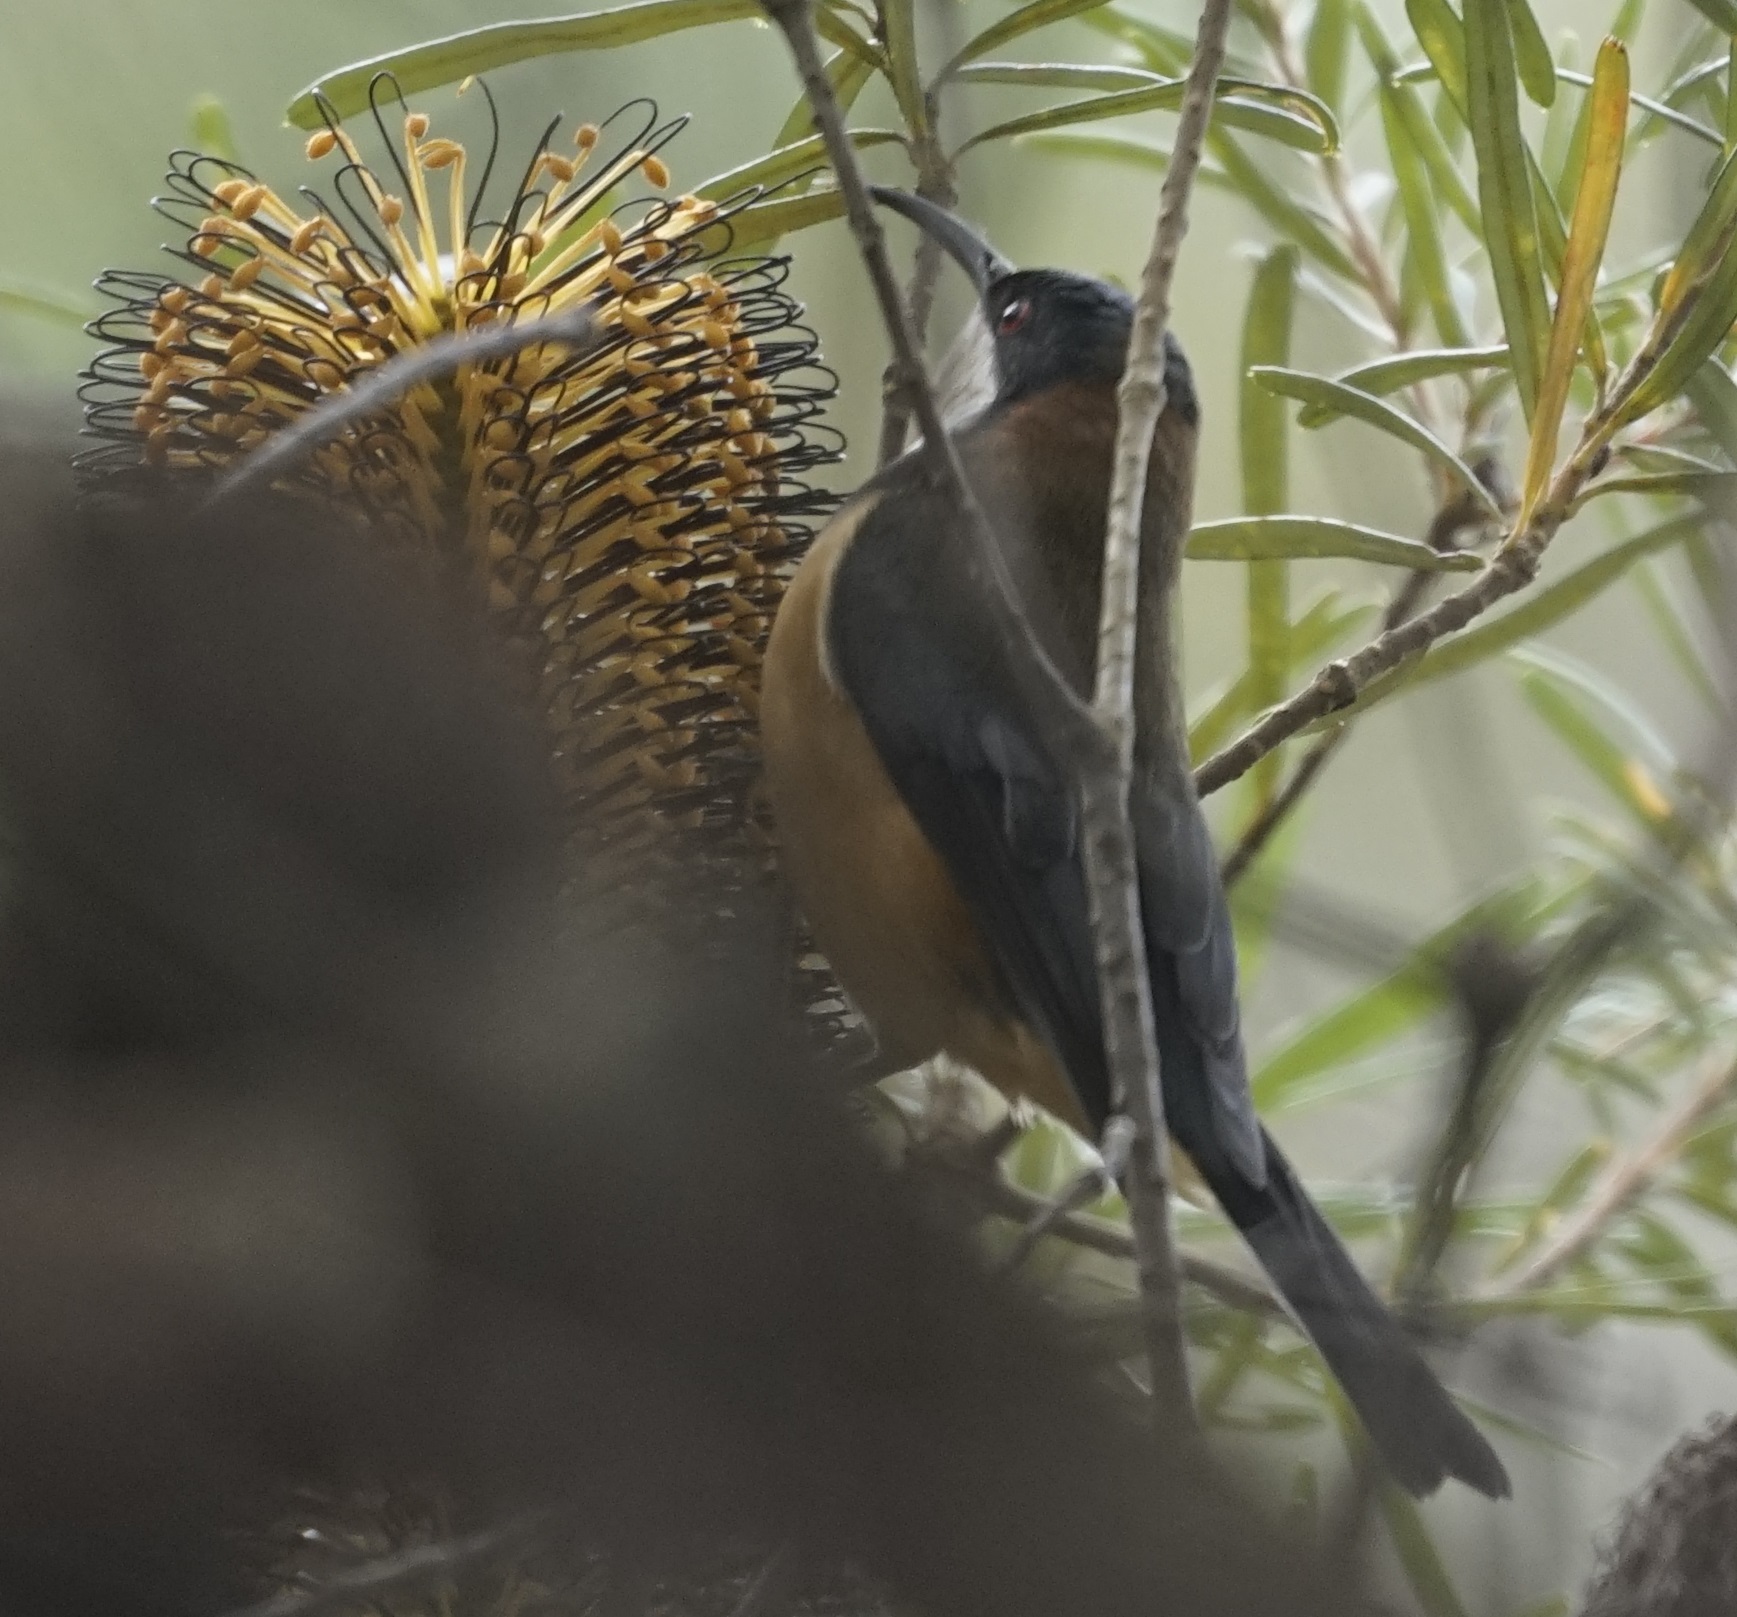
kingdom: Animalia
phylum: Chordata
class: Aves
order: Passeriformes
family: Meliphagidae
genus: Acanthorhynchus
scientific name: Acanthorhynchus tenuirostris
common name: Eastern spinebill
